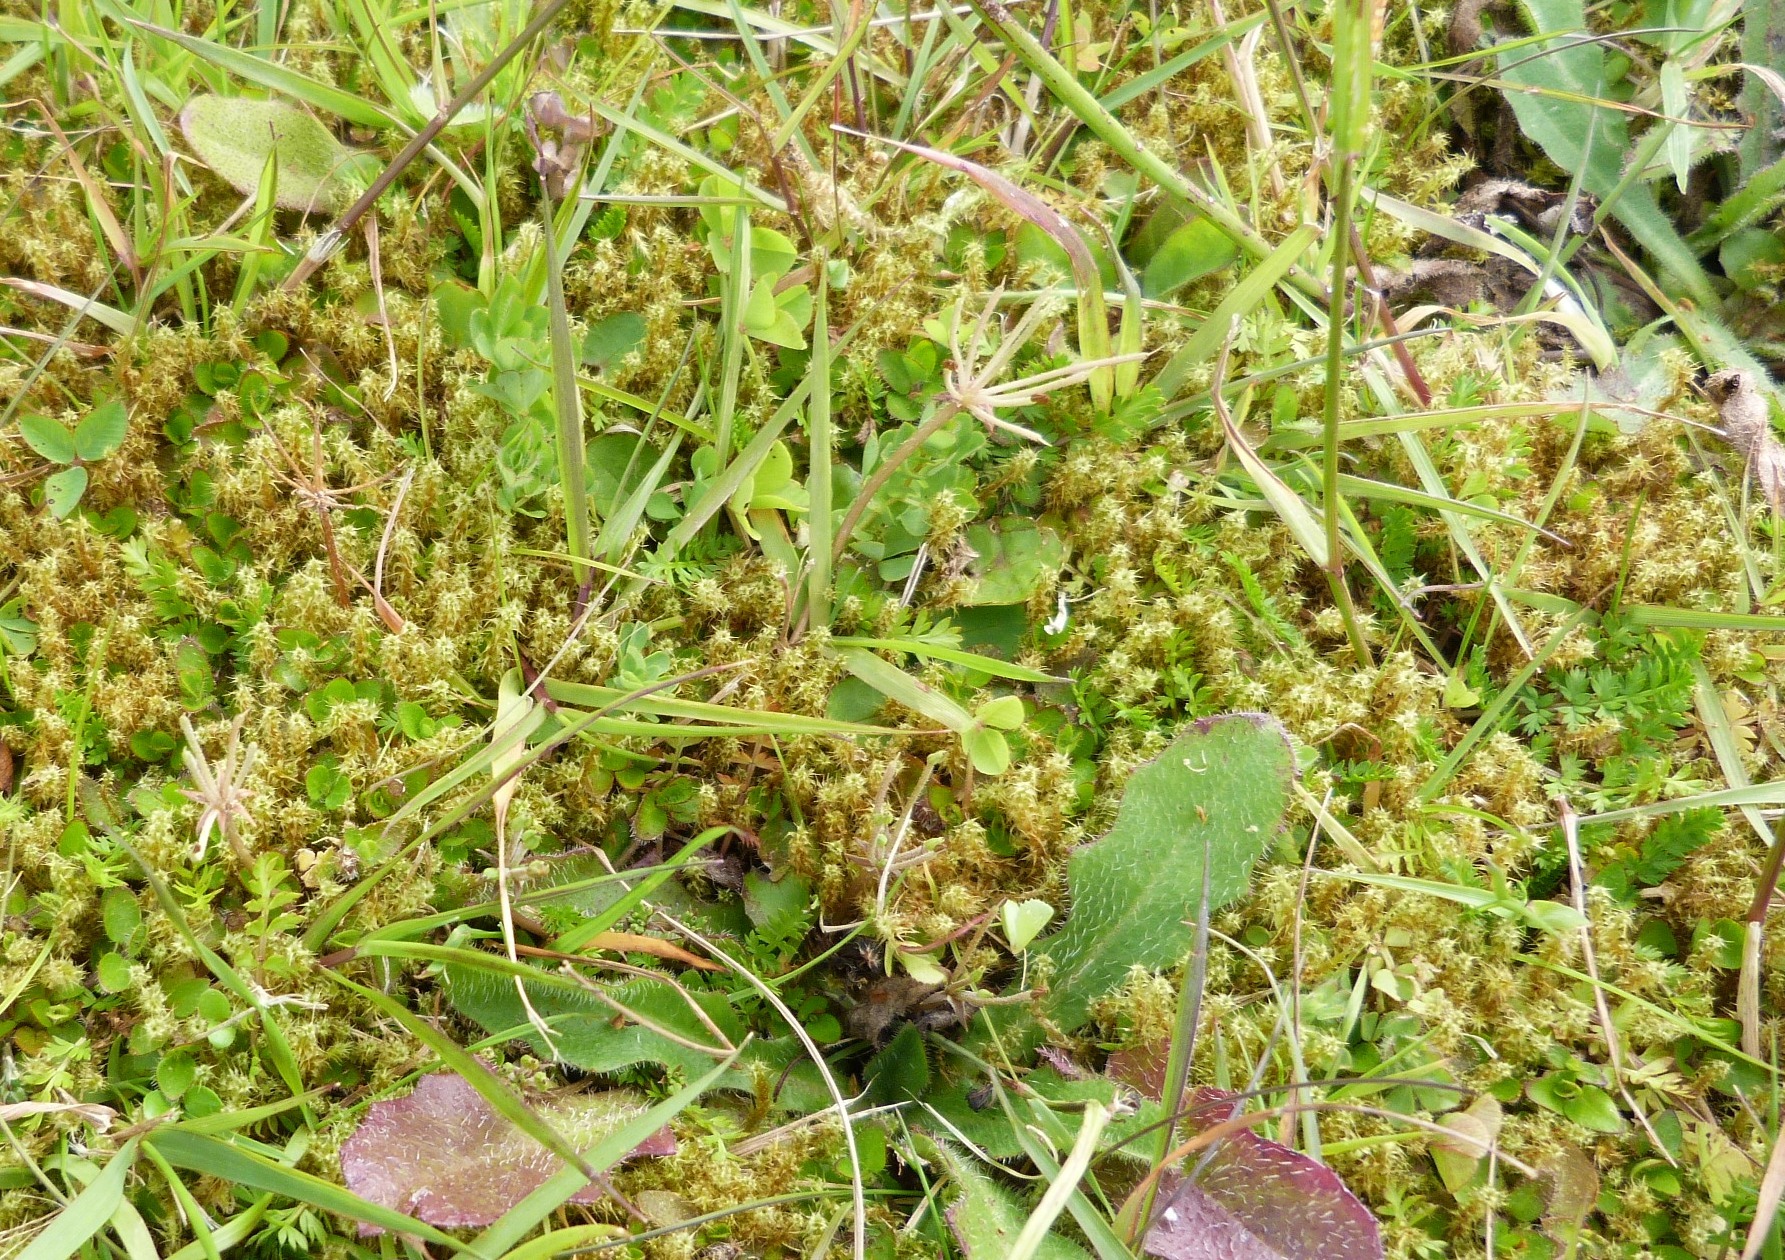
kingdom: Plantae
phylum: Tracheophyta
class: Magnoliopsida
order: Apiales
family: Apiaceae
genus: Chaerophyllum
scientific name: Chaerophyllum colensoi
